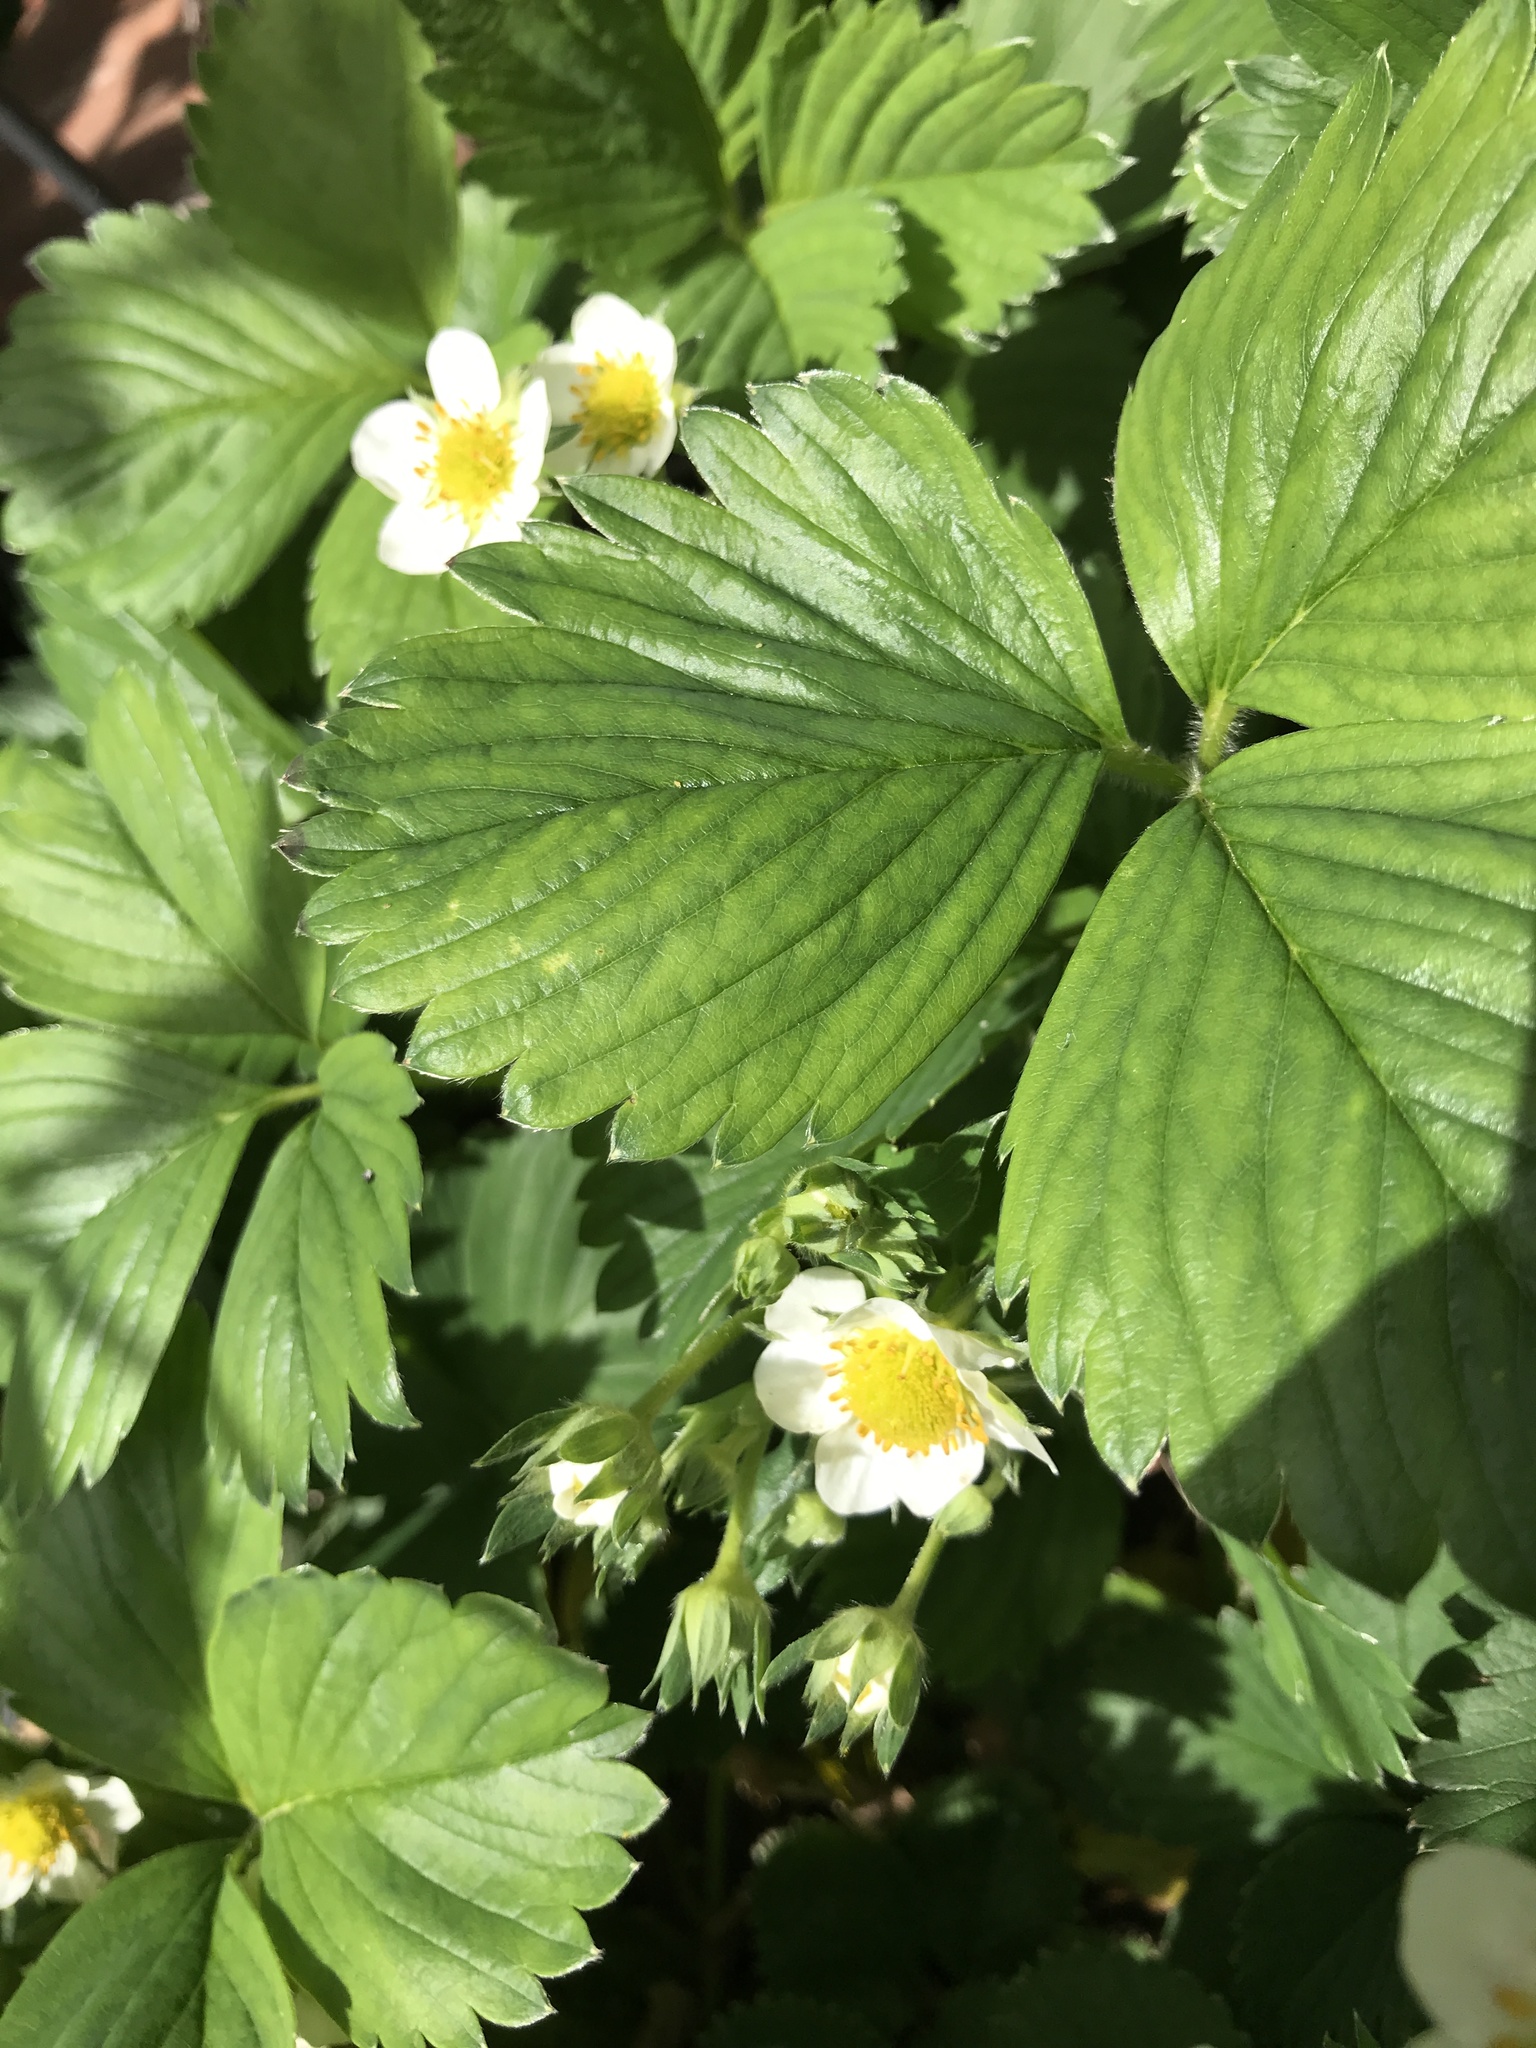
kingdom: Plantae
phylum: Tracheophyta
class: Magnoliopsida
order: Rosales
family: Rosaceae
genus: Fragaria
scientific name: Fragaria vesca
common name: Wild strawberry
